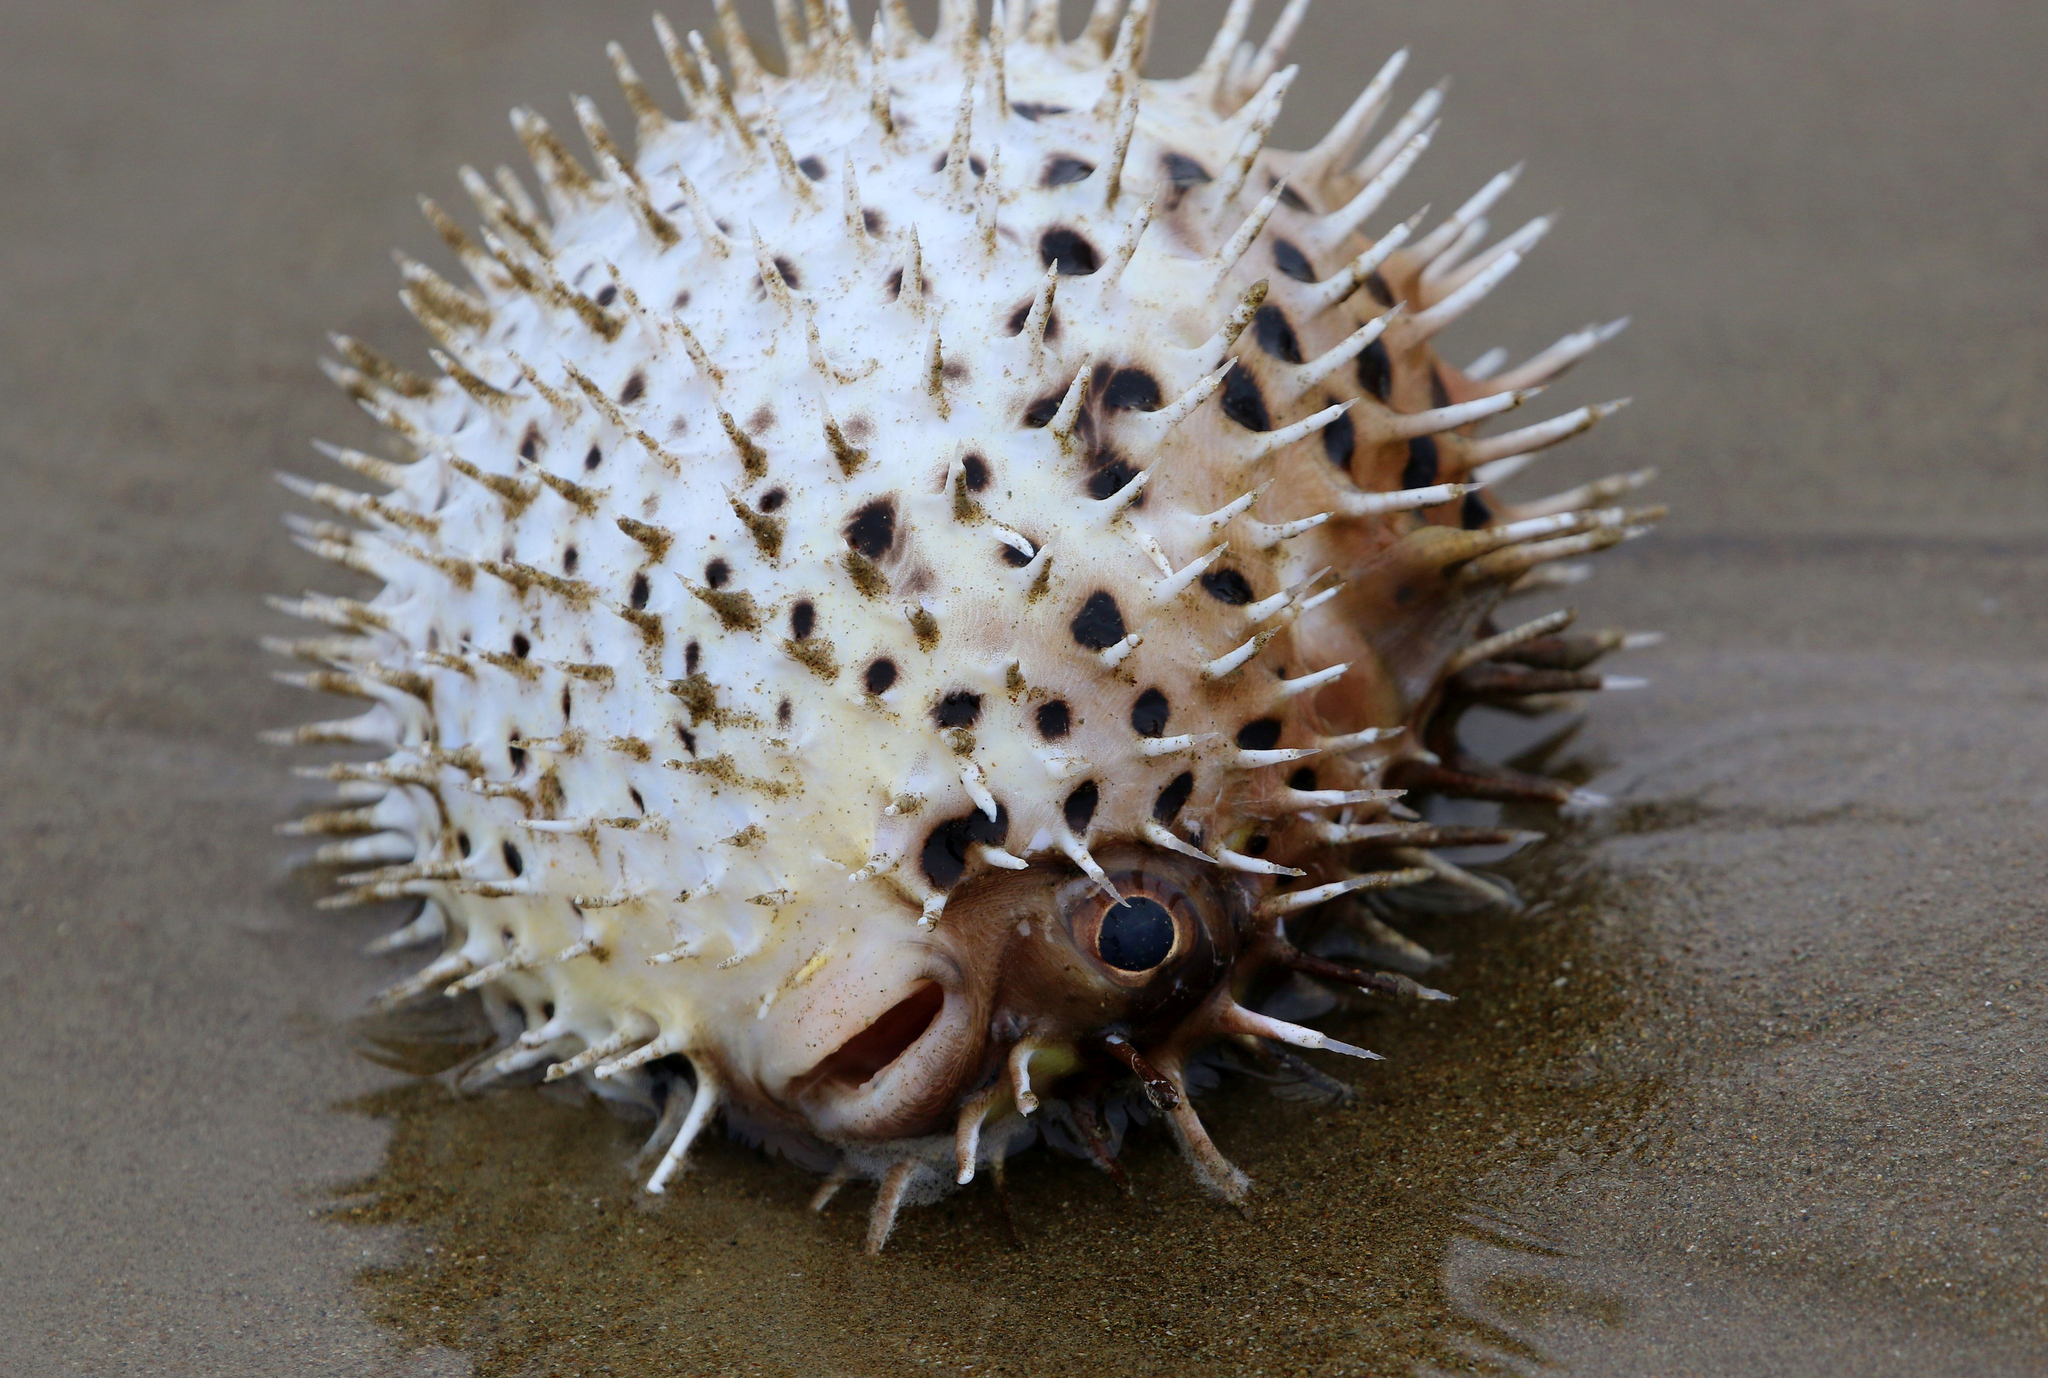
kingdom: Animalia
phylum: Chordata
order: Tetraodontiformes
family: Diodontidae
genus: Diodon
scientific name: Diodon holocanthus
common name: Balloonfish
